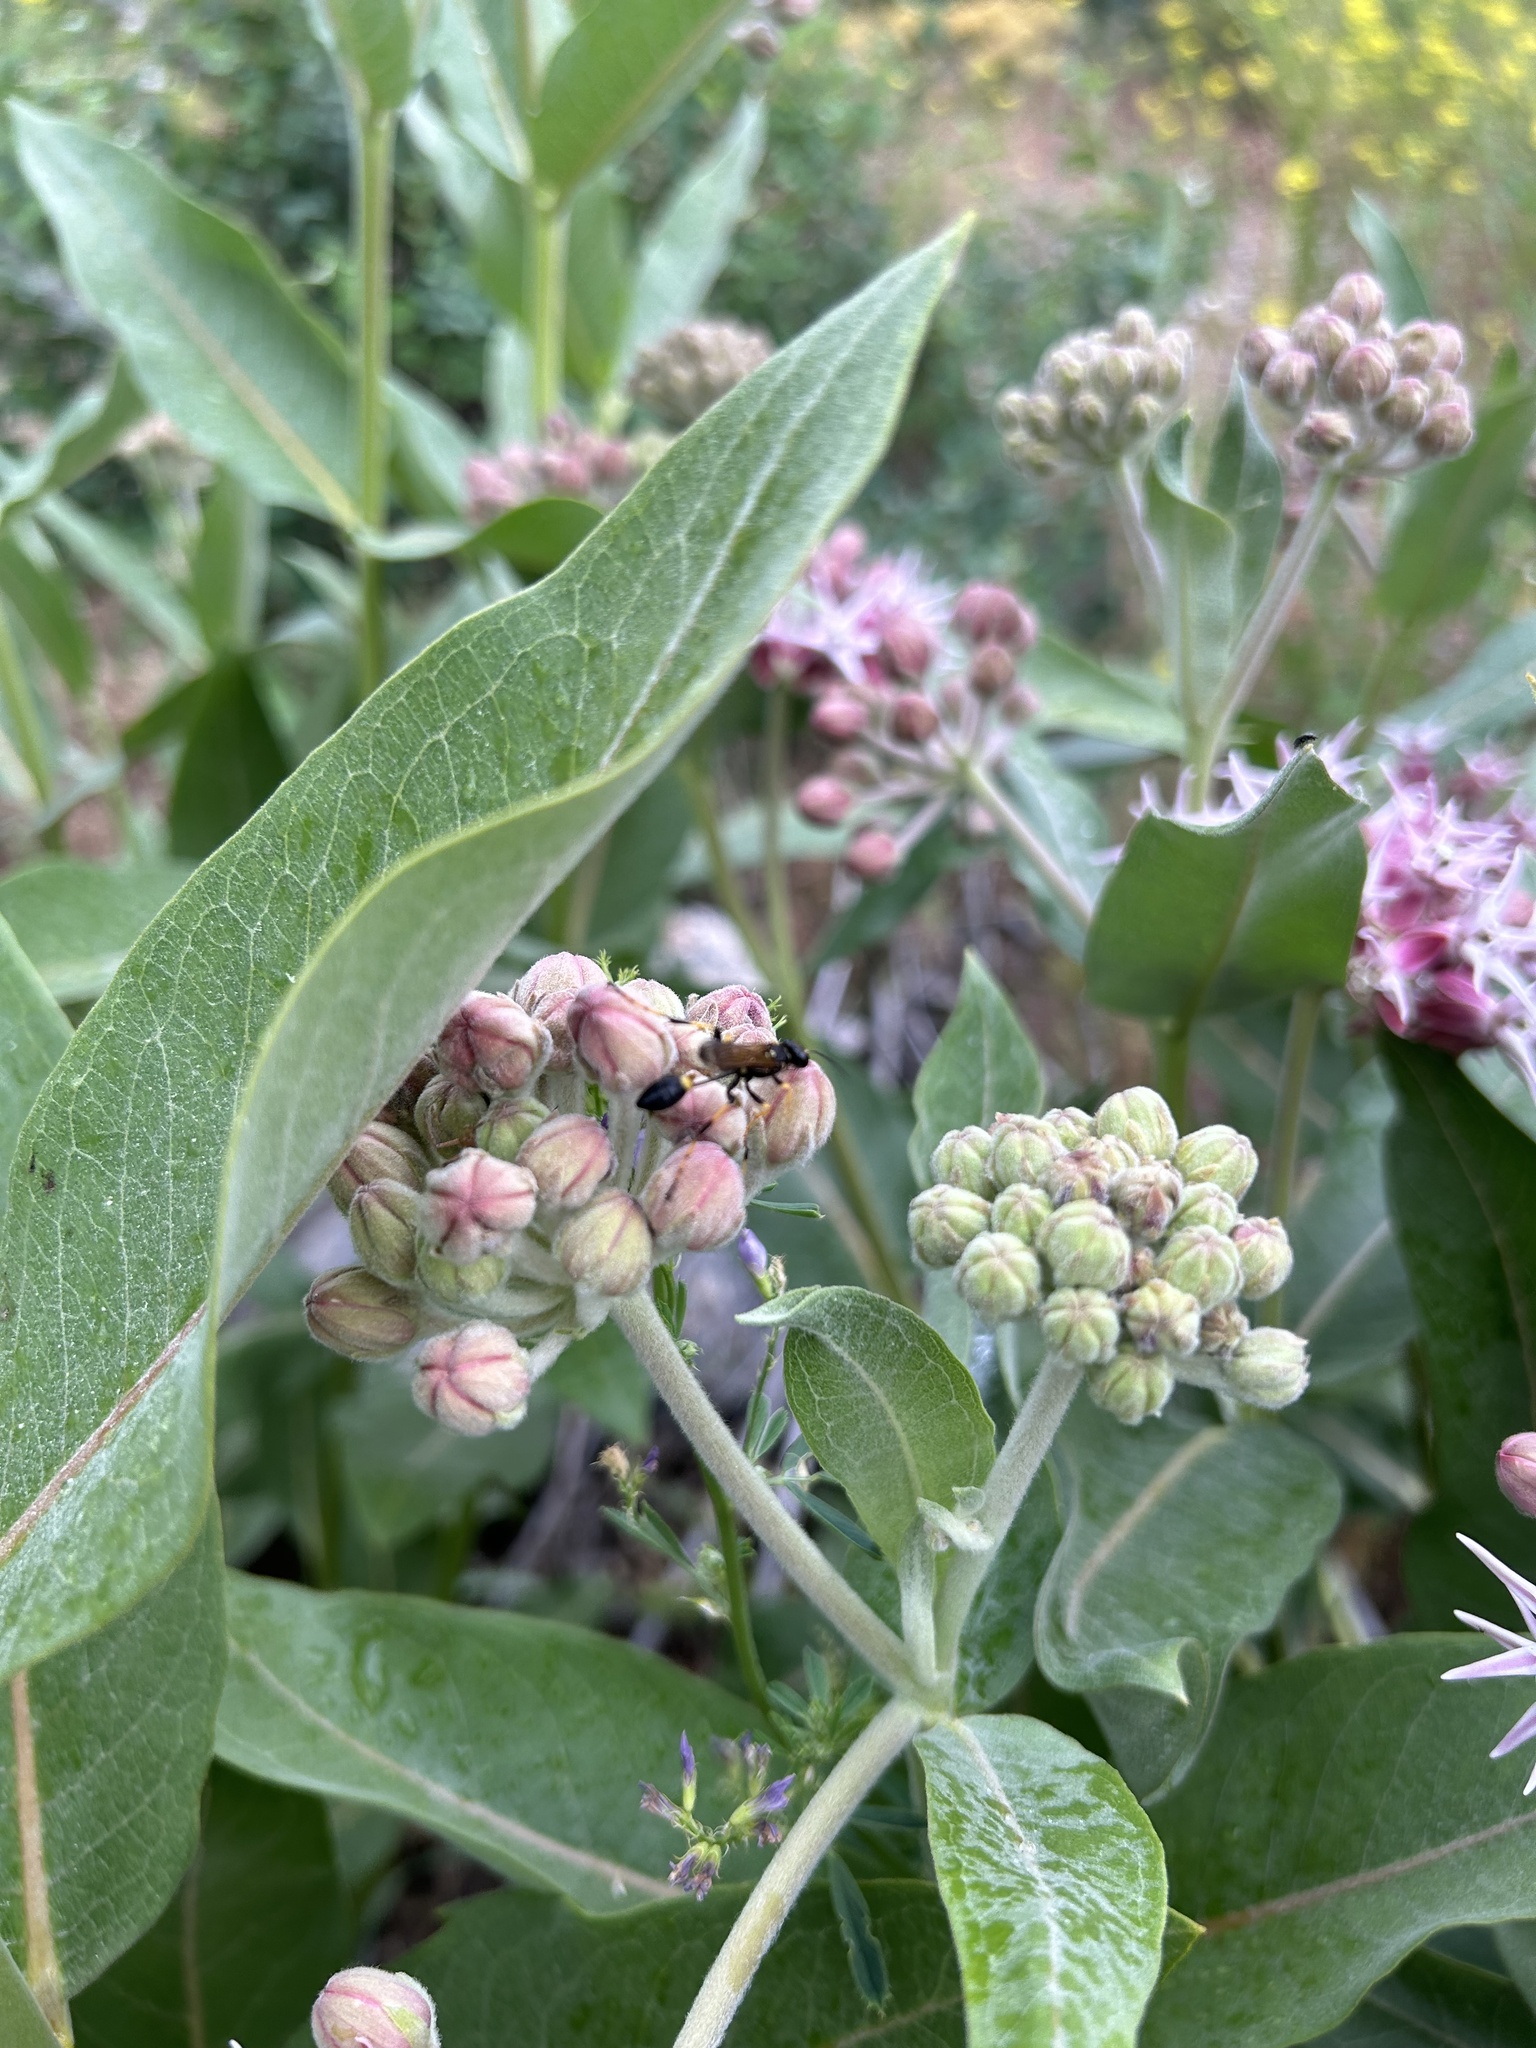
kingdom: Animalia
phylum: Arthropoda
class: Insecta
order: Hymenoptera
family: Sphecidae
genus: Sceliphron
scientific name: Sceliphron caementarium
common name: Mud dauber
